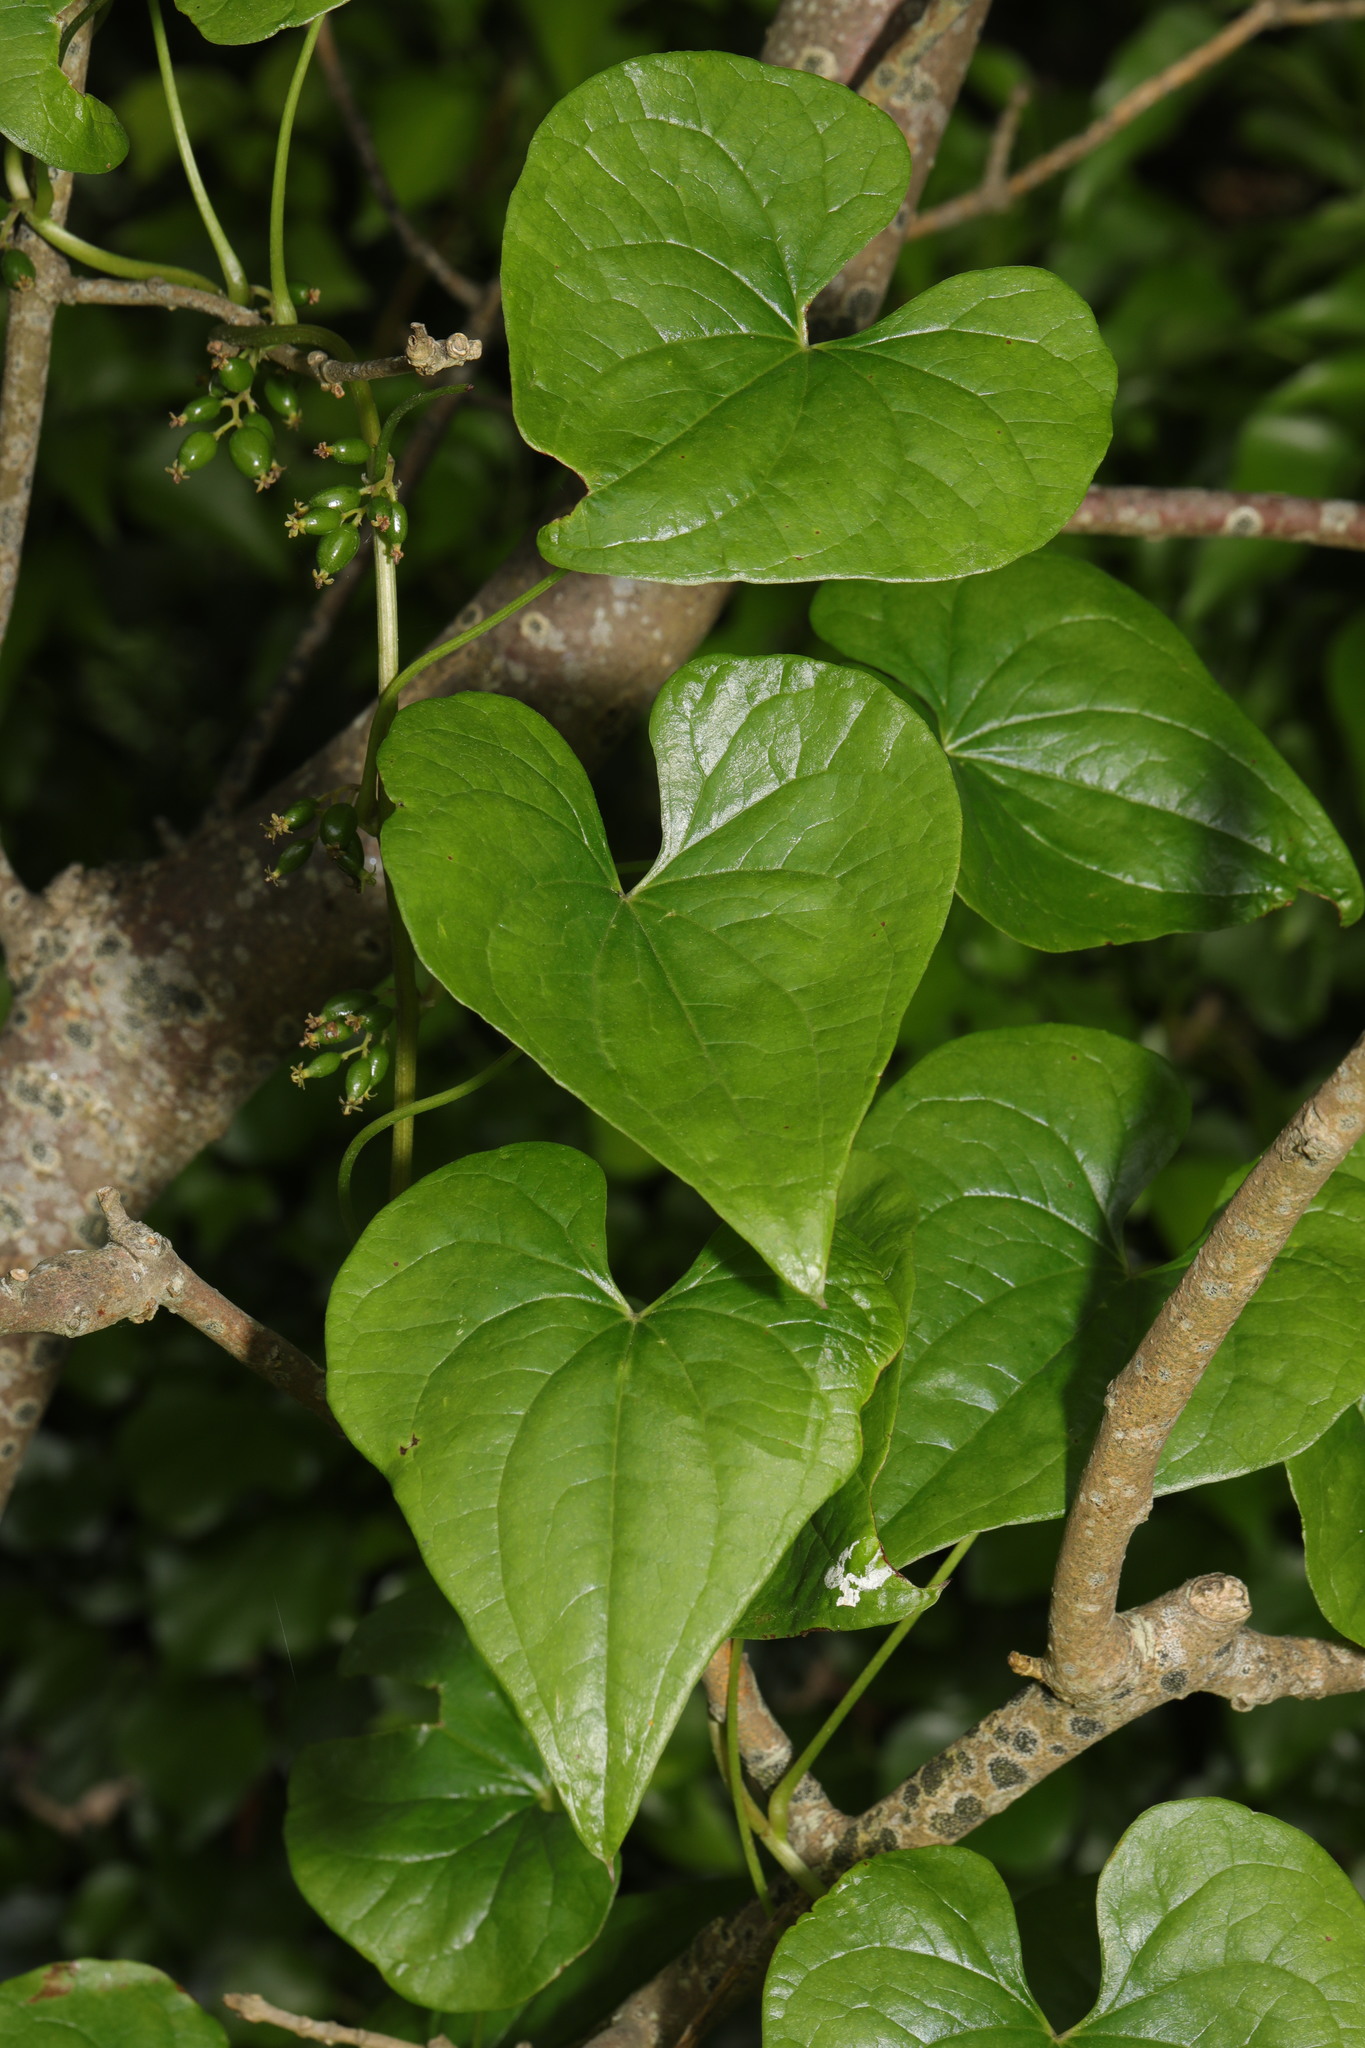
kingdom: Plantae
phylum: Tracheophyta
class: Liliopsida
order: Dioscoreales
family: Dioscoreaceae
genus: Dioscorea
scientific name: Dioscorea communis
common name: Black-bindweed
